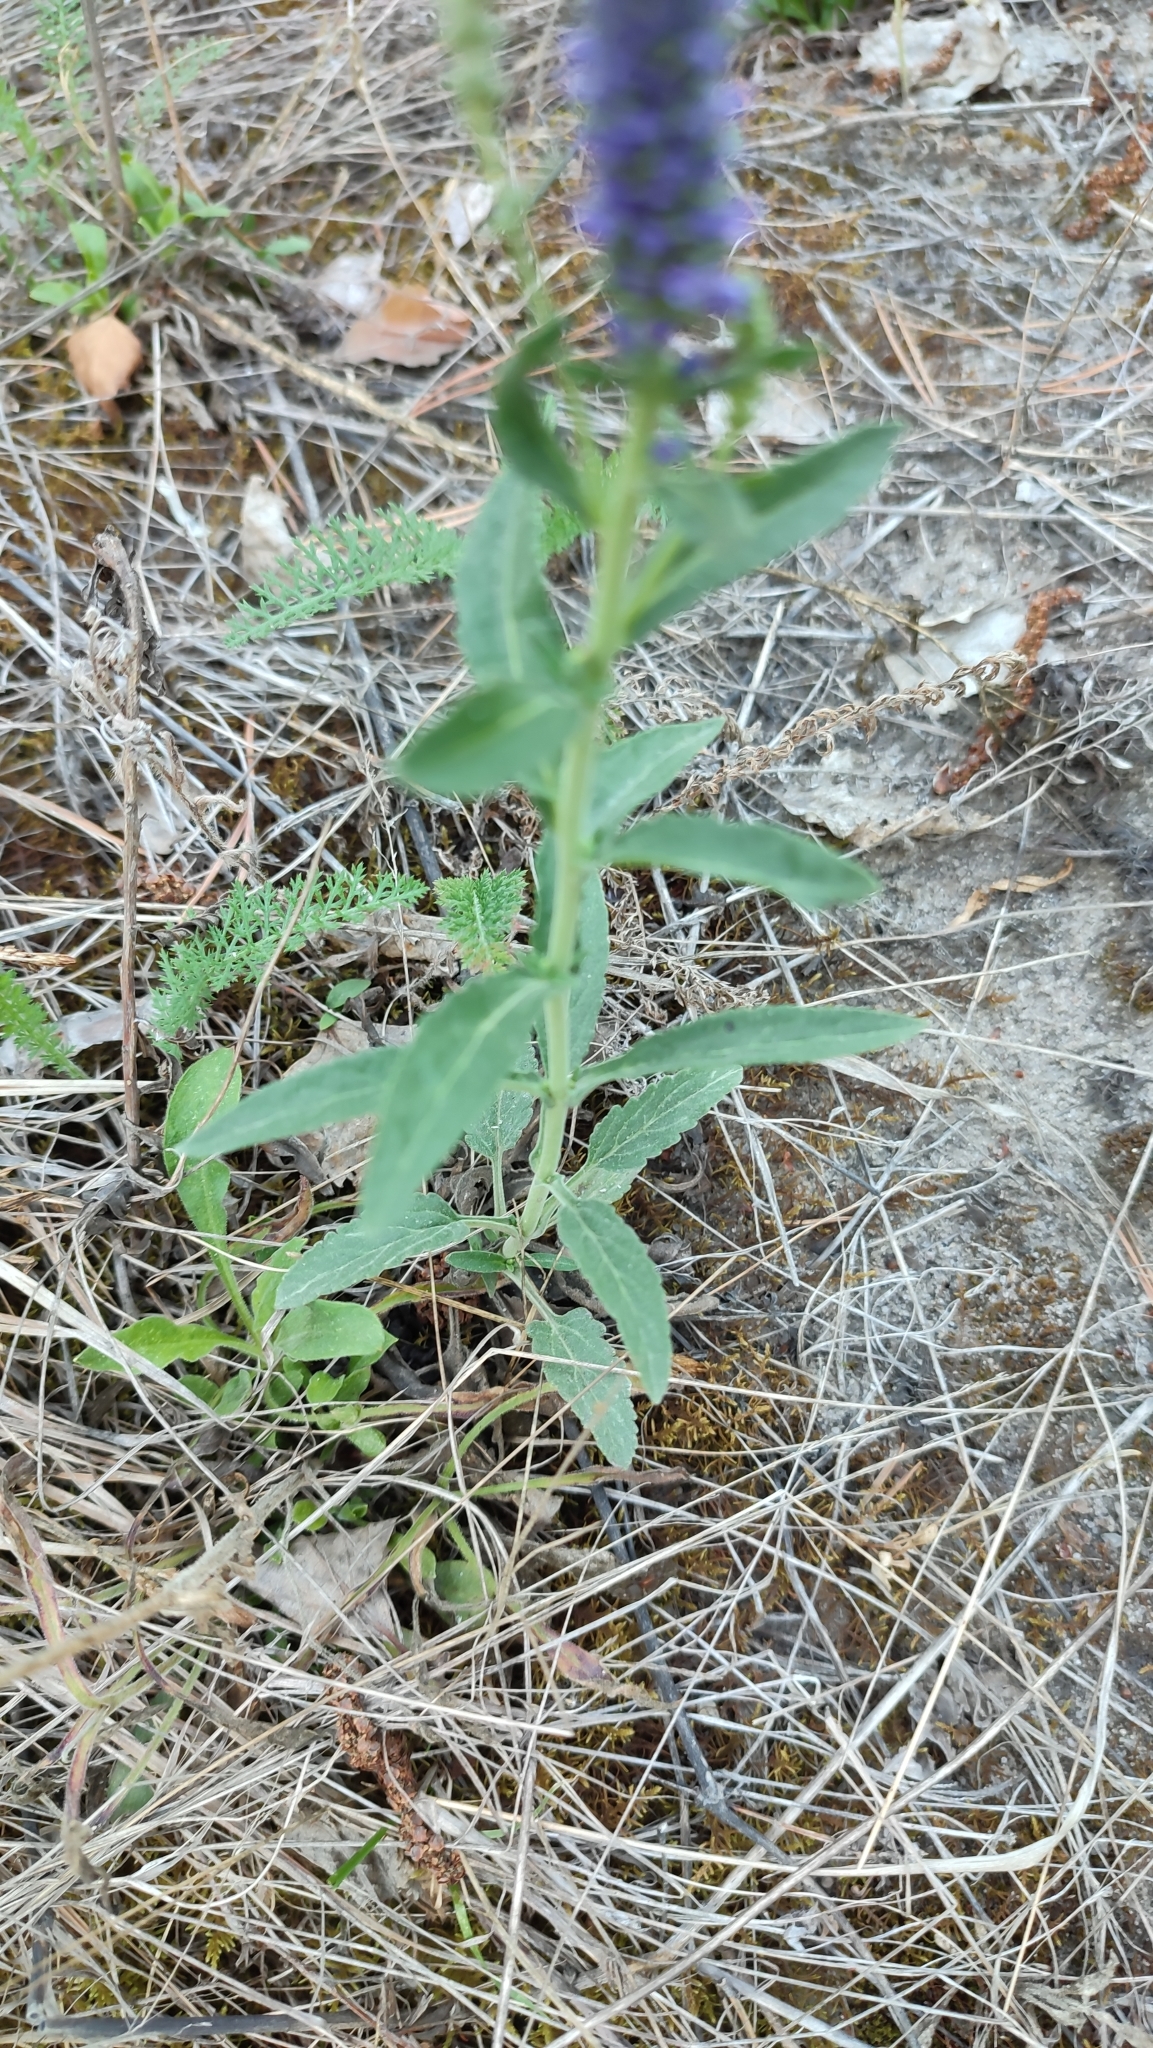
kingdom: Plantae
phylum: Tracheophyta
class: Magnoliopsida
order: Lamiales
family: Plantaginaceae
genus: Veronica
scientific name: Veronica spicata
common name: Spiked speedwell
